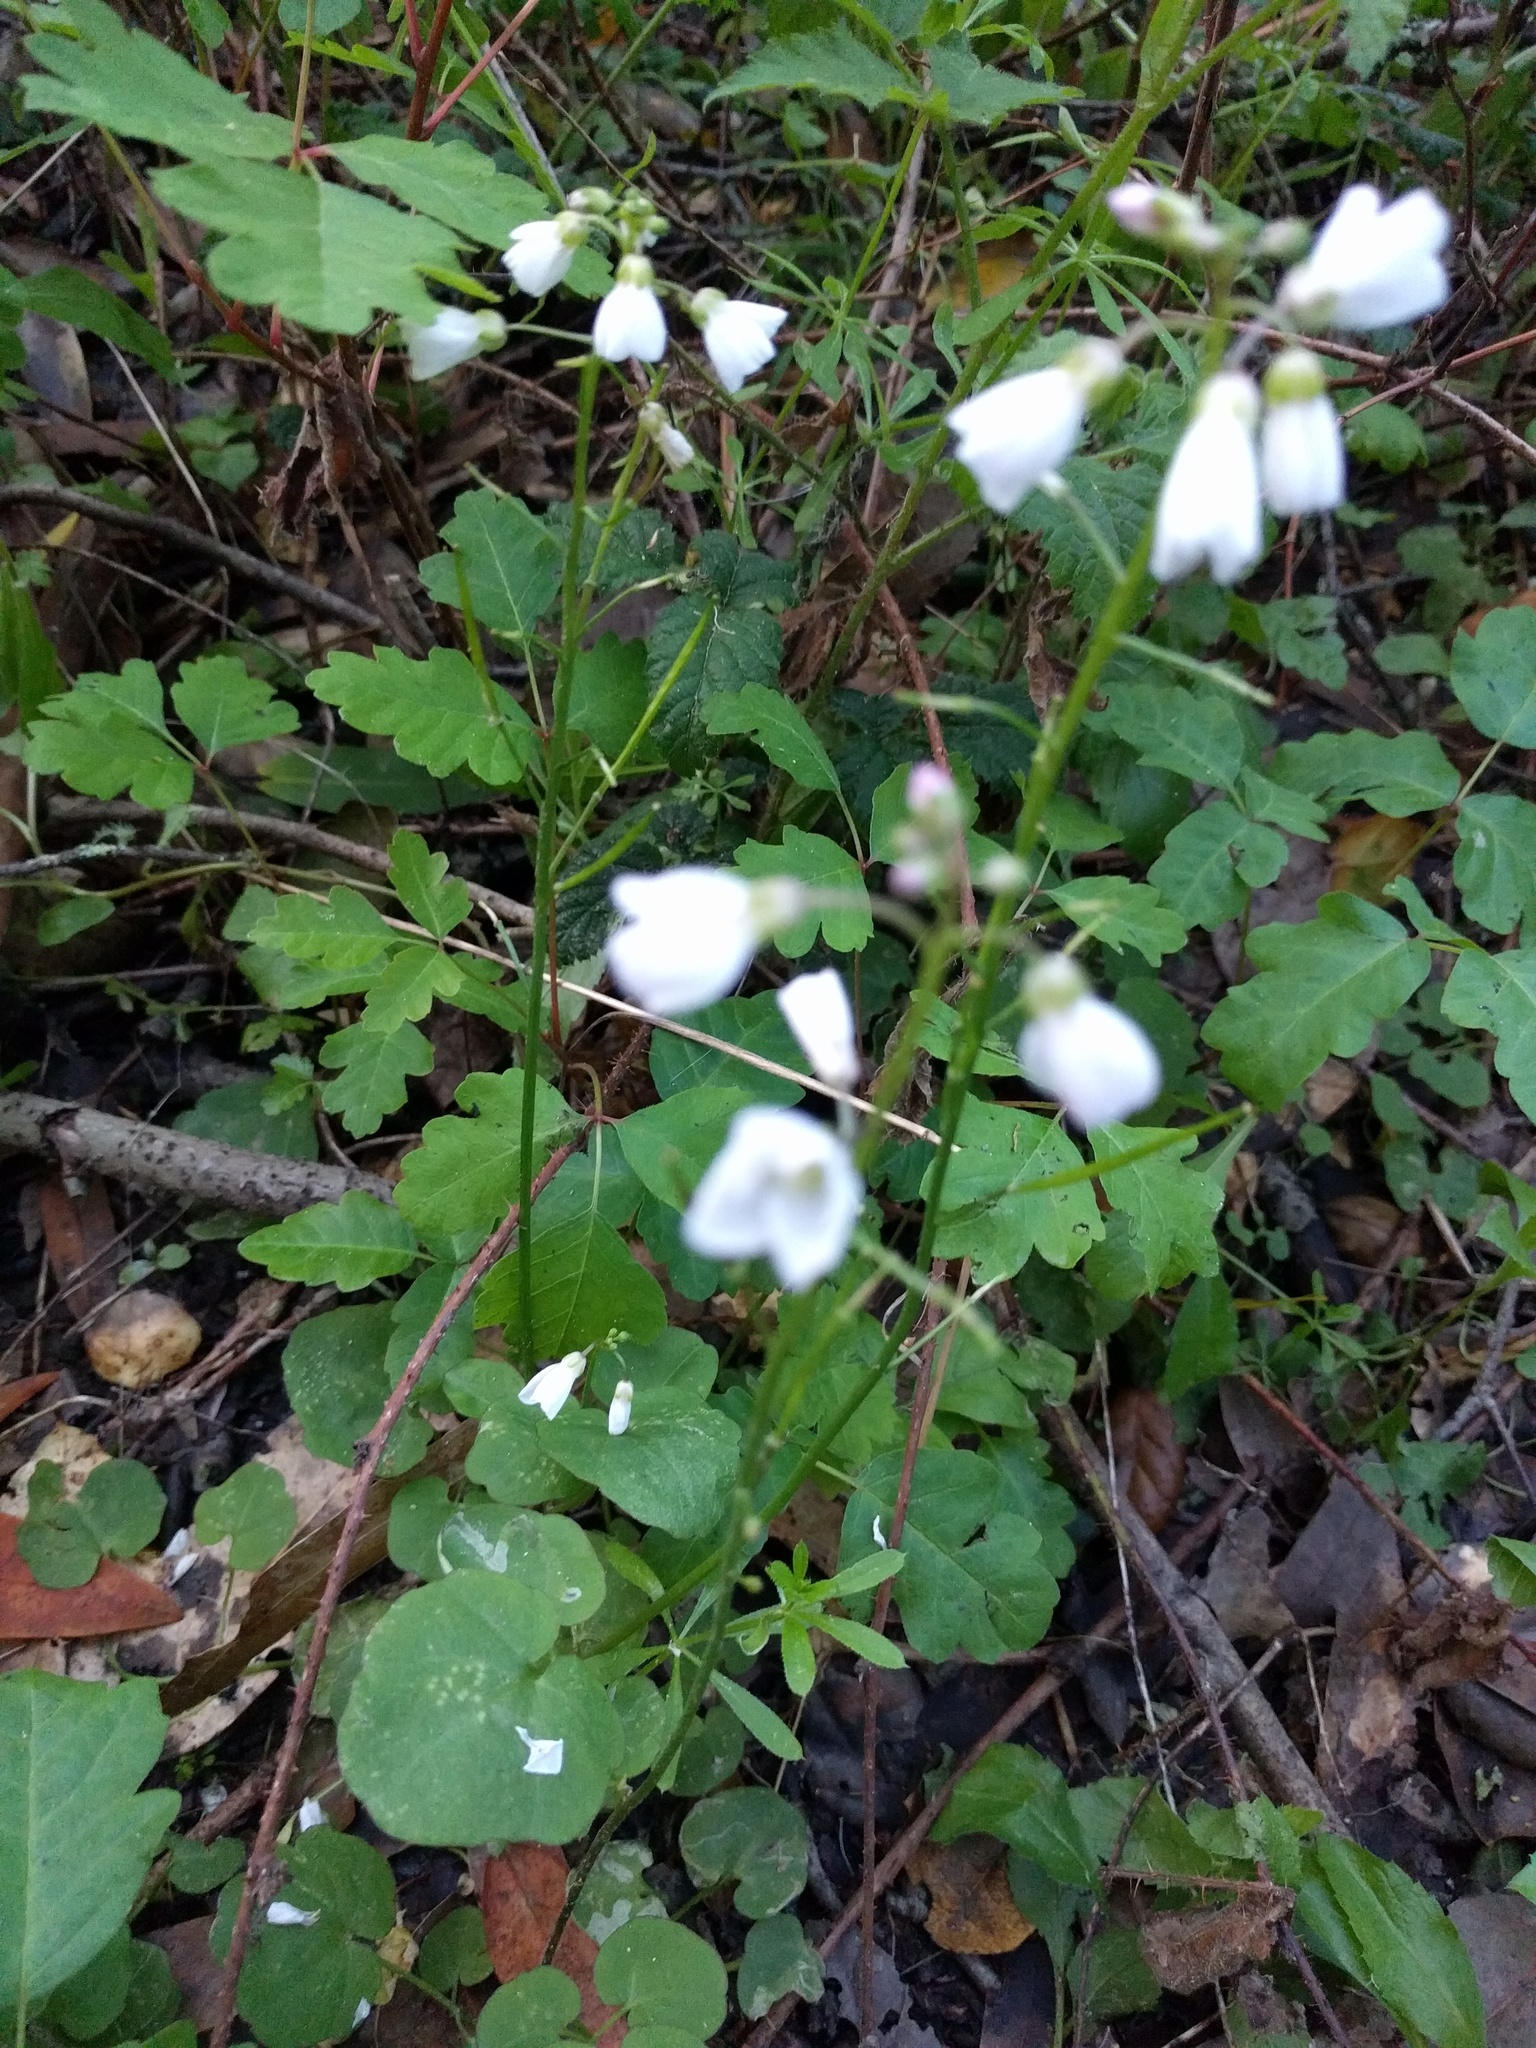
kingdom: Plantae
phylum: Tracheophyta
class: Magnoliopsida
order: Brassicales
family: Brassicaceae
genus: Cardamine
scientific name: Cardamine californica
